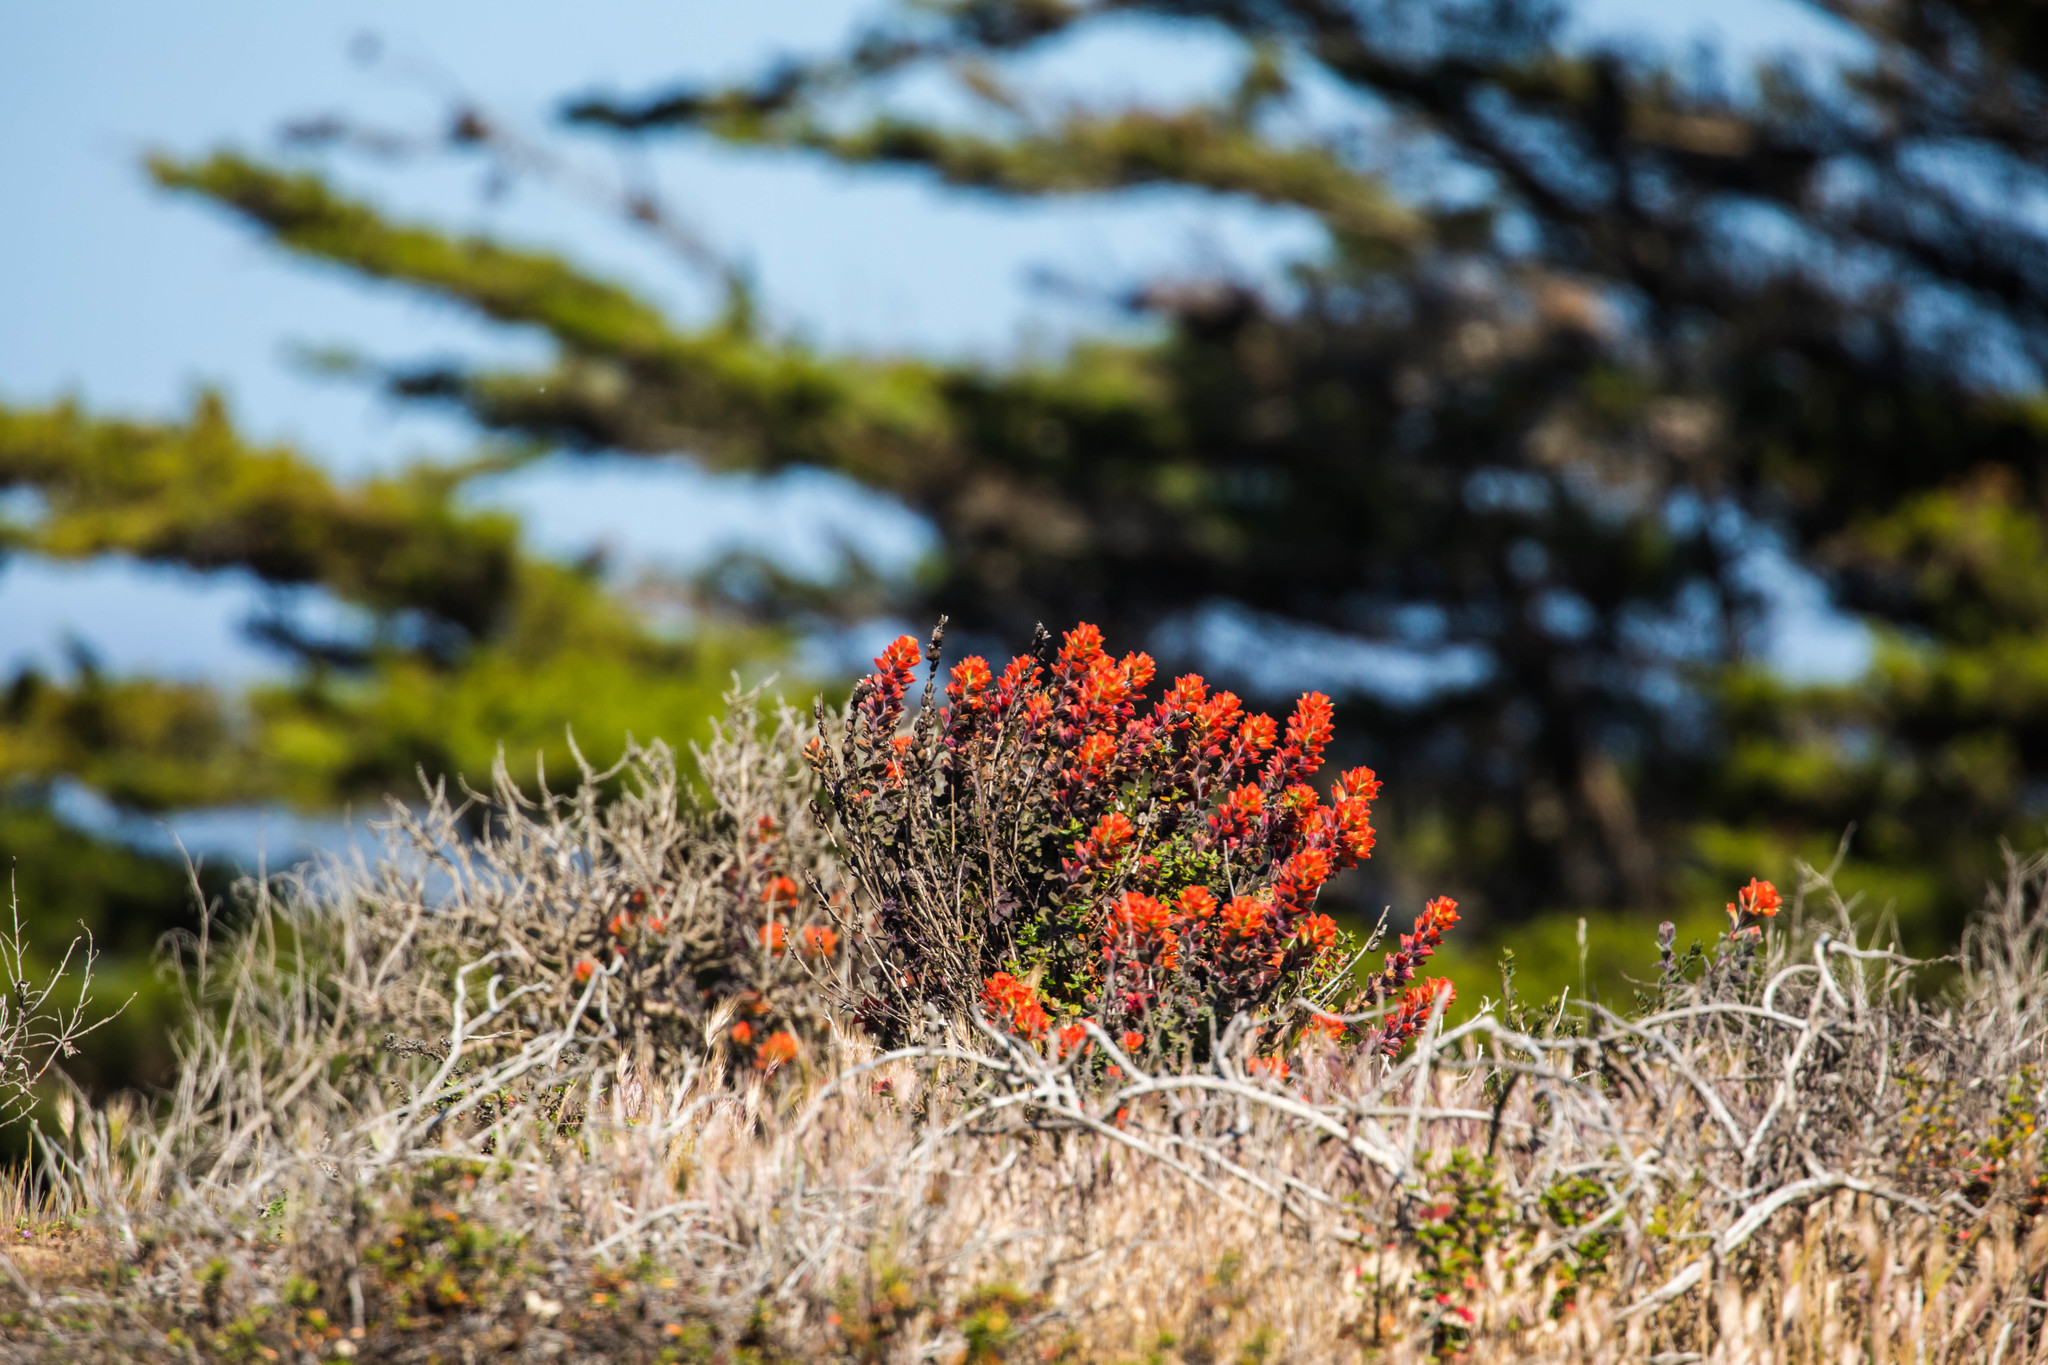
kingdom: Plantae
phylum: Tracheophyta
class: Magnoliopsida
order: Lamiales
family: Orobanchaceae
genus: Castilleja
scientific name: Castilleja latifolia
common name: Monterey indian paintbrush
